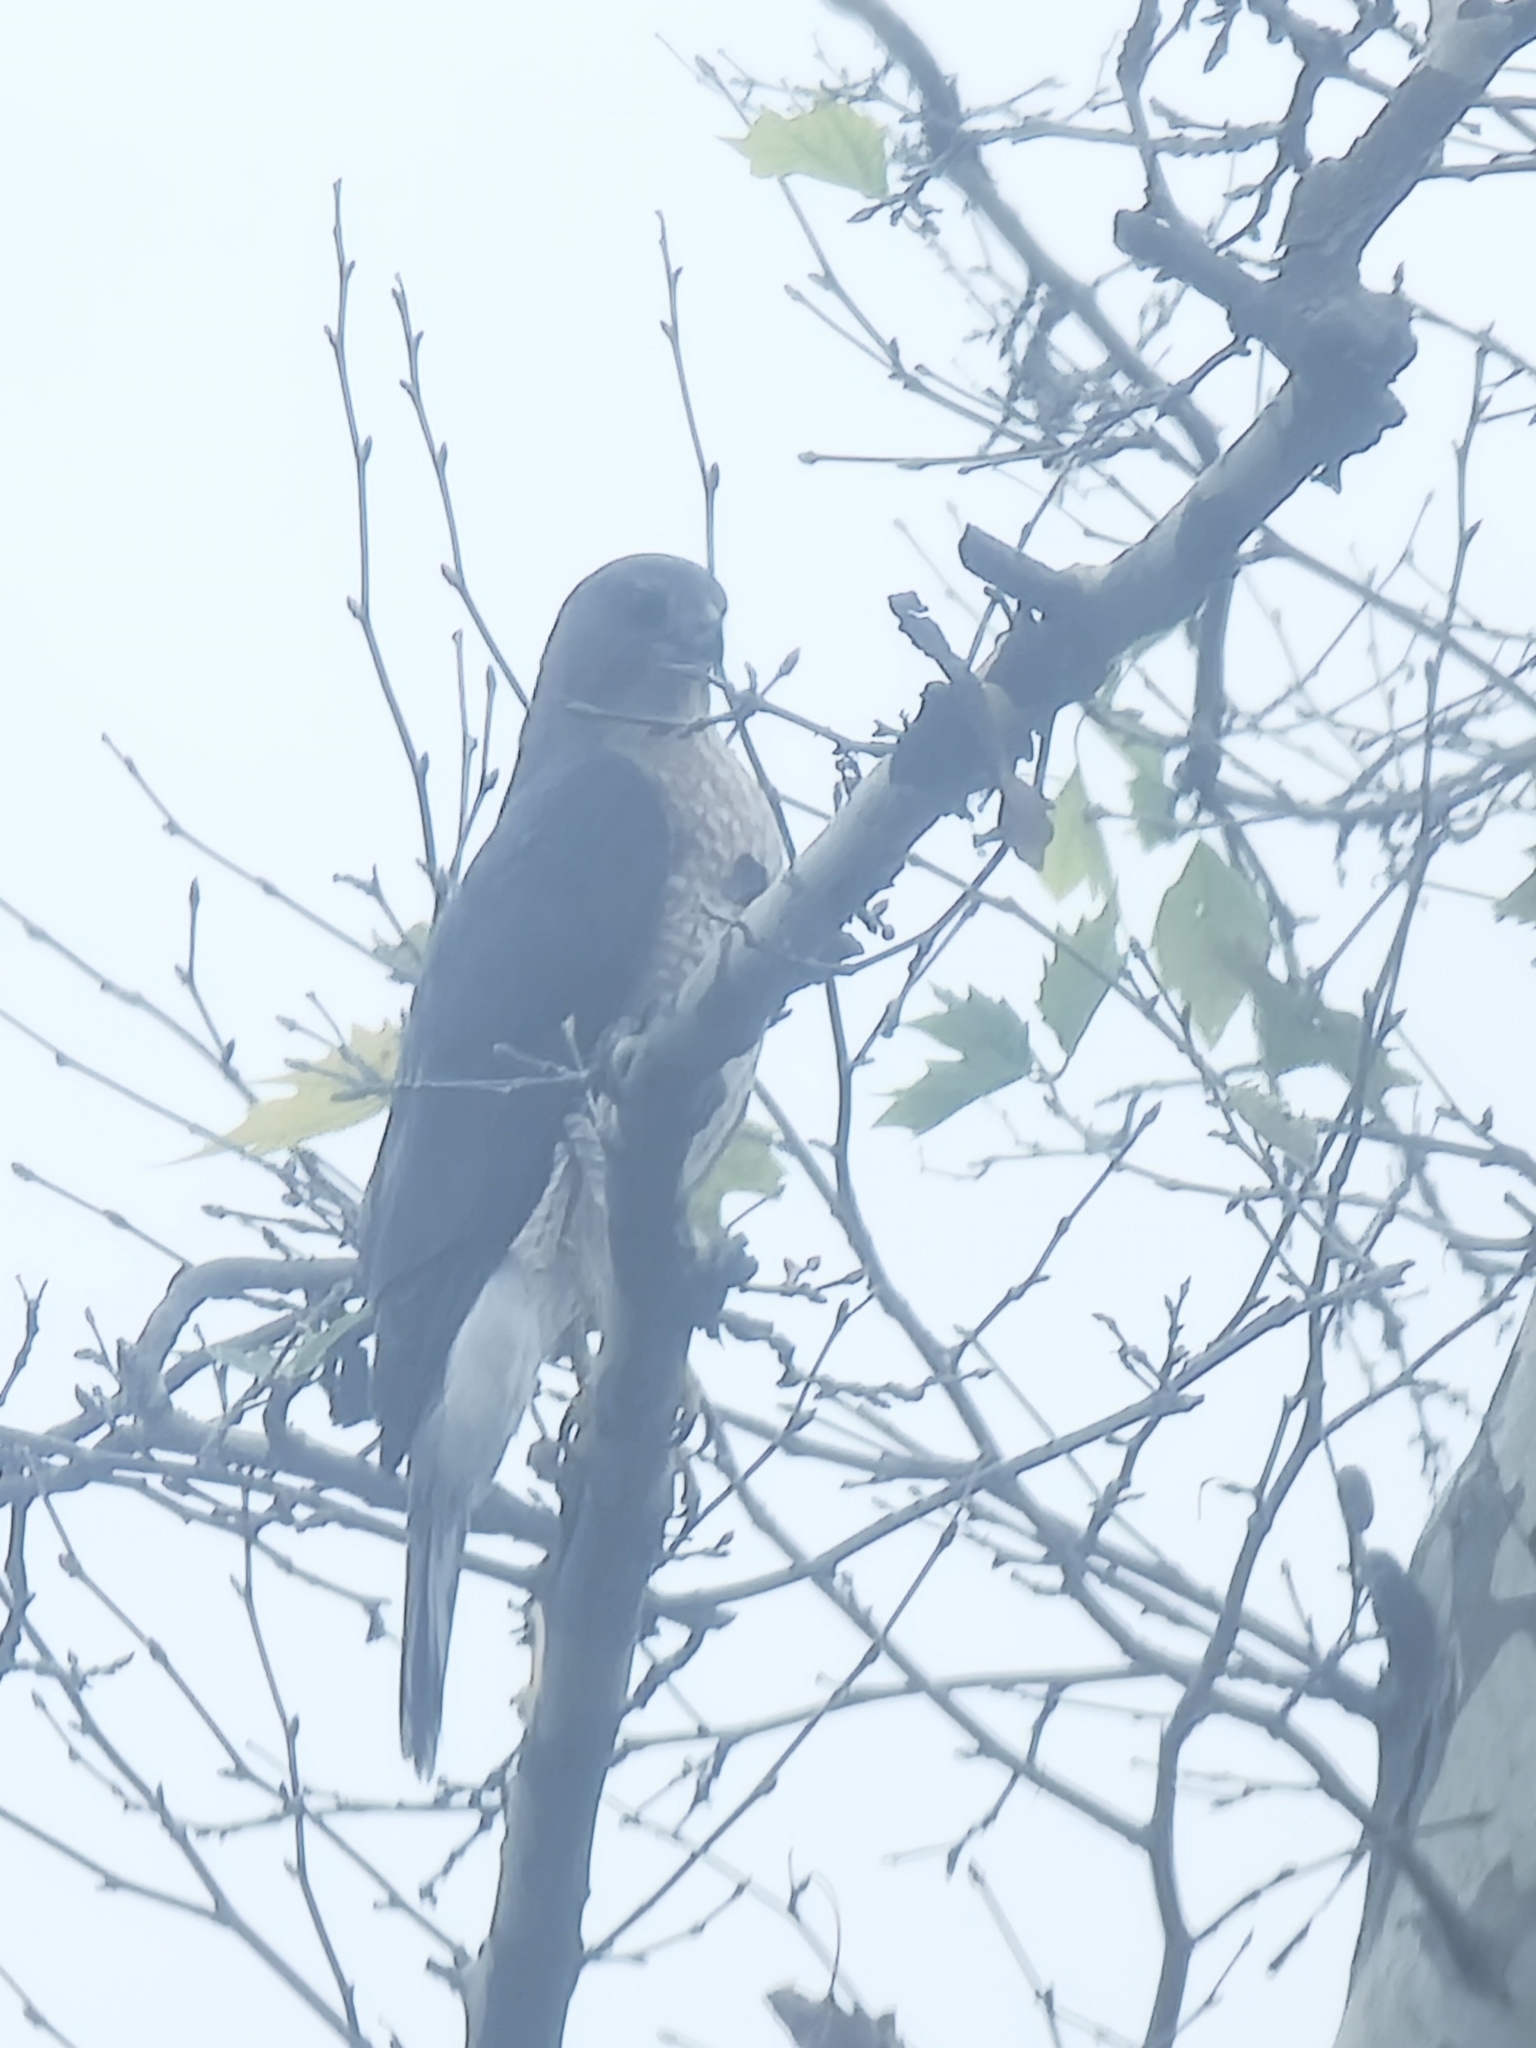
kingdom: Animalia
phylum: Chordata
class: Aves
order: Accipitriformes
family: Accipitridae
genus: Accipiter
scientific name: Accipiter cooperii
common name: Cooper's hawk
